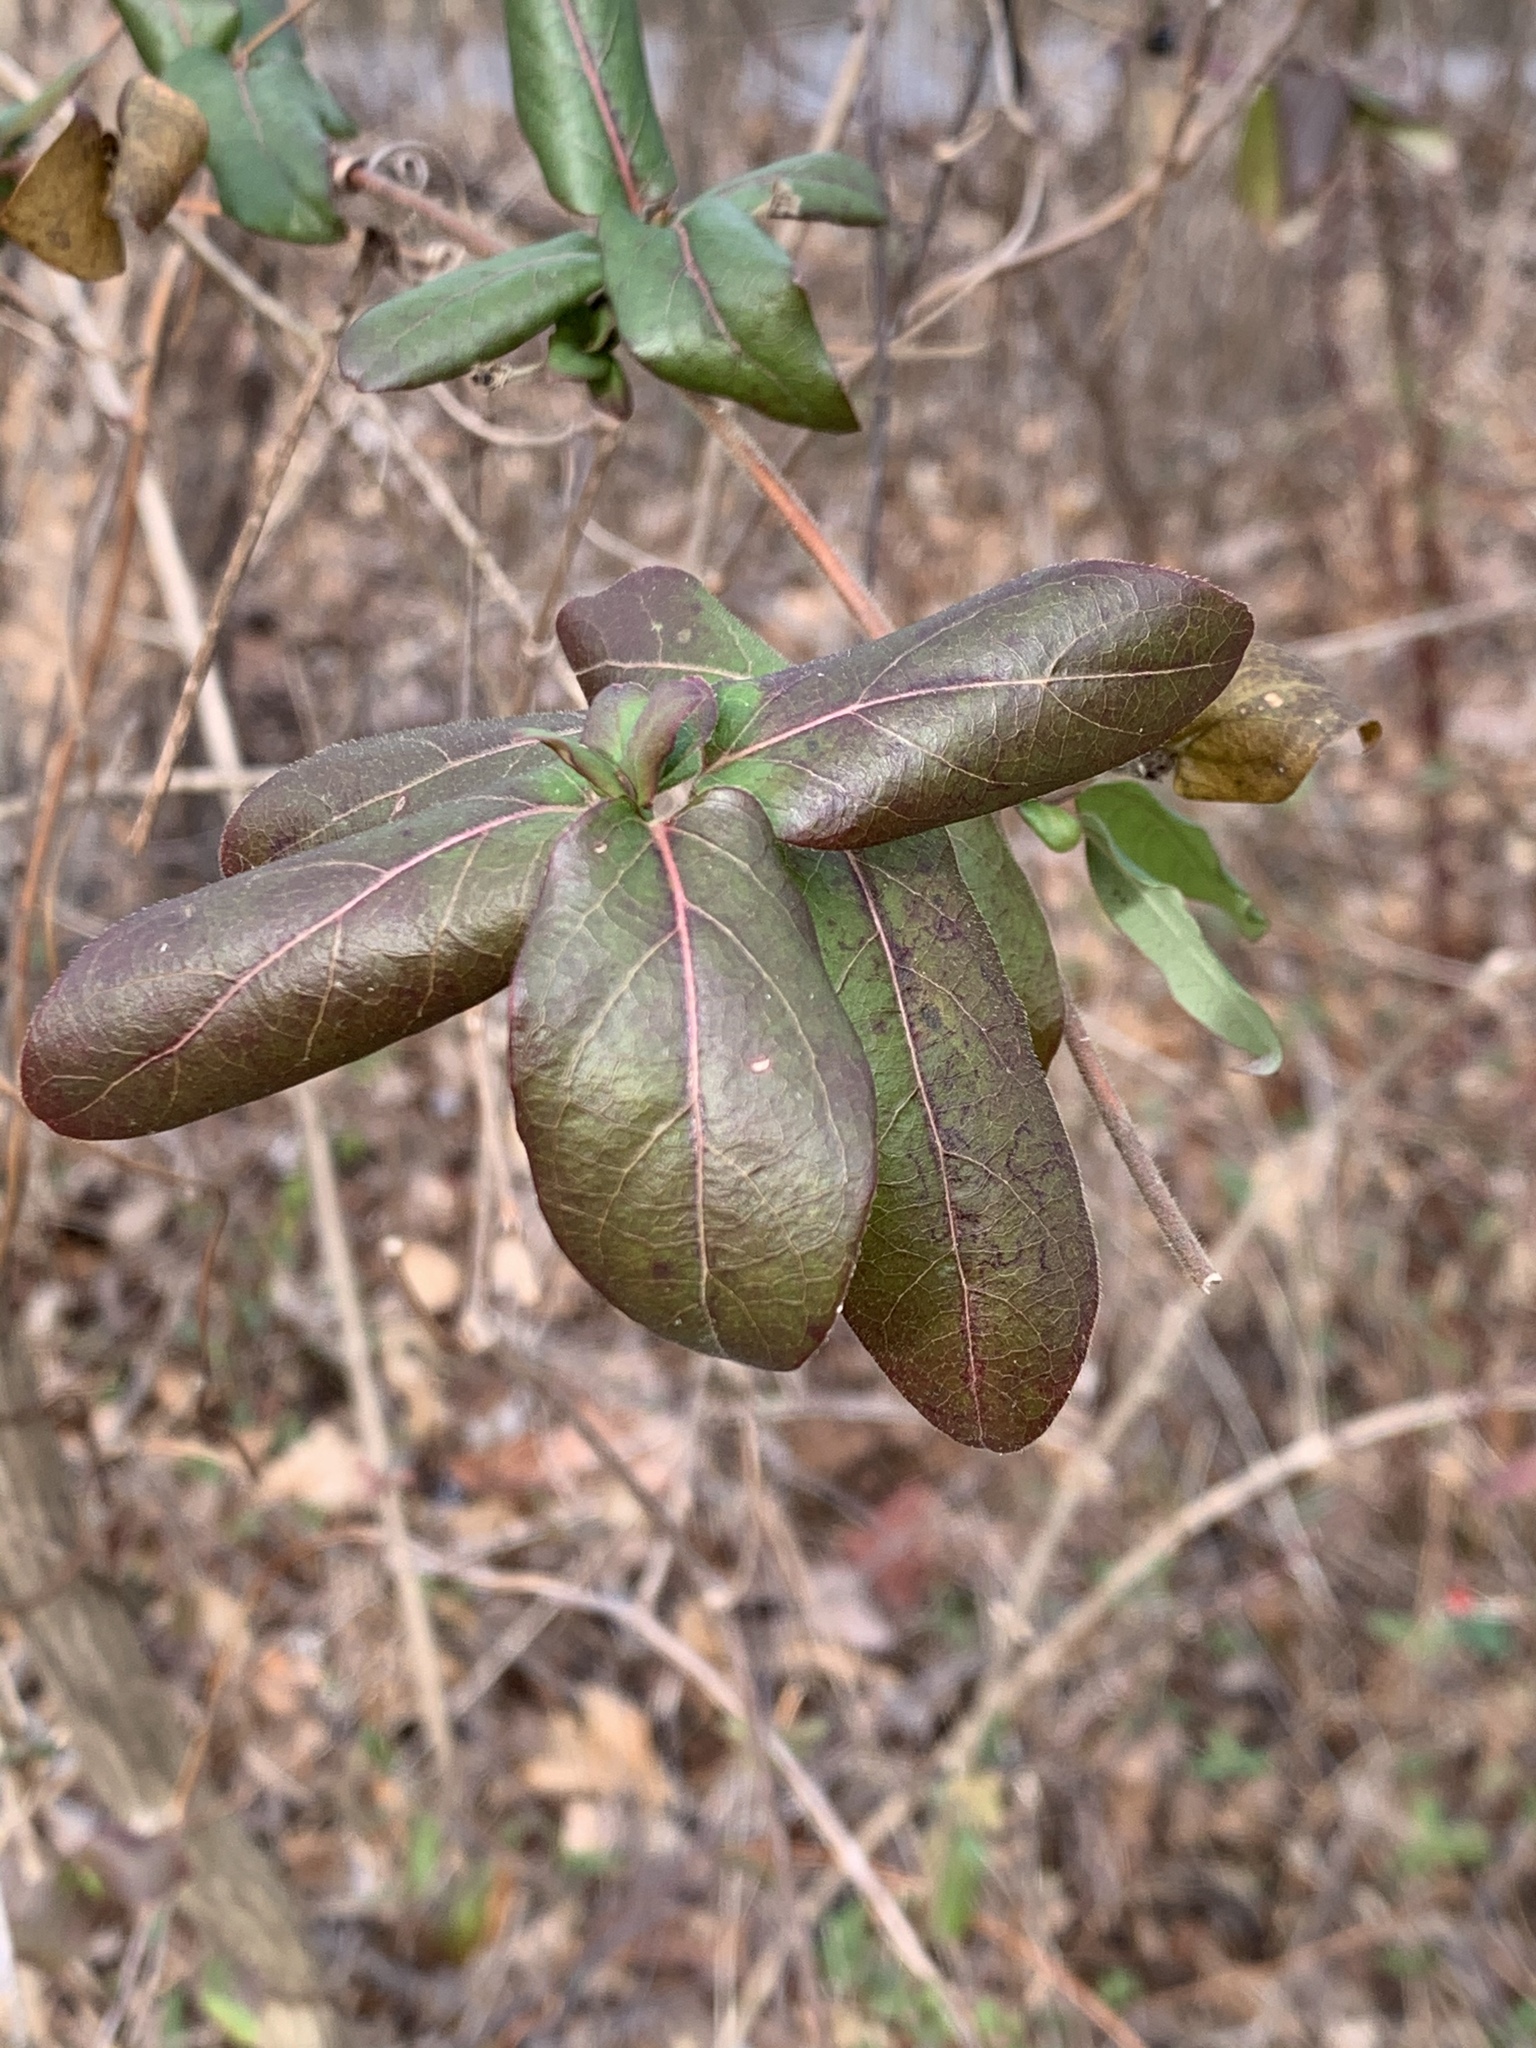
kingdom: Plantae
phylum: Tracheophyta
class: Magnoliopsida
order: Dipsacales
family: Caprifoliaceae
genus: Lonicera
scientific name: Lonicera japonica
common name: Japanese honeysuckle
